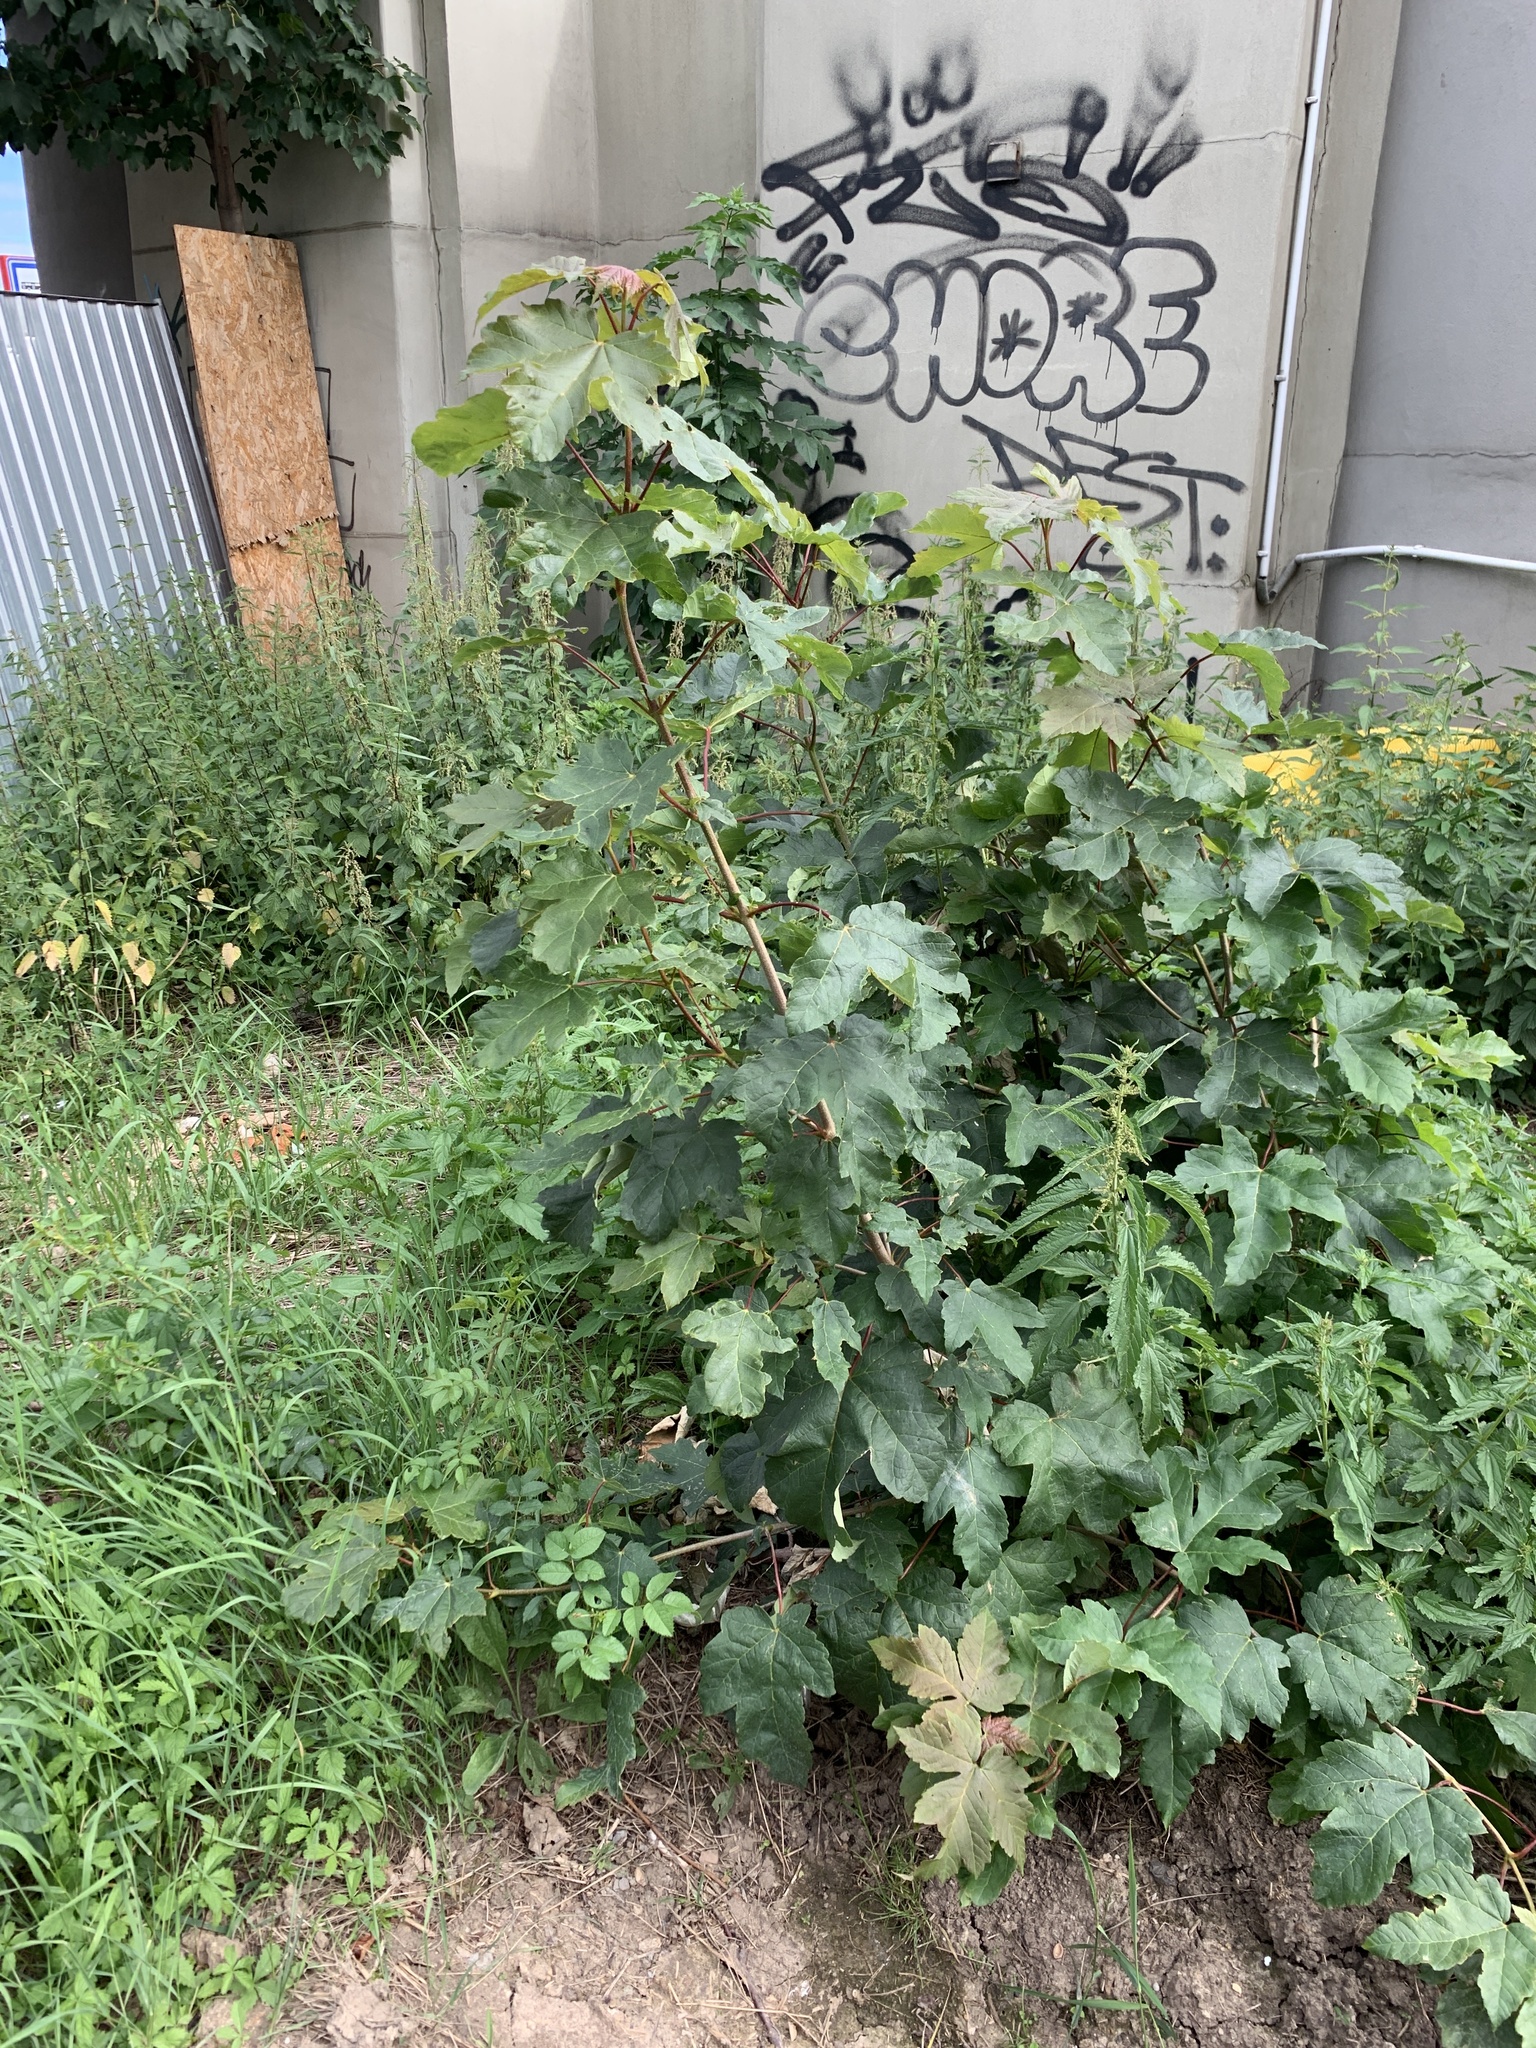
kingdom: Plantae
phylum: Tracheophyta
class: Magnoliopsida
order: Sapindales
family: Sapindaceae
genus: Acer
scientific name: Acer pseudoplatanus
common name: Sycamore
